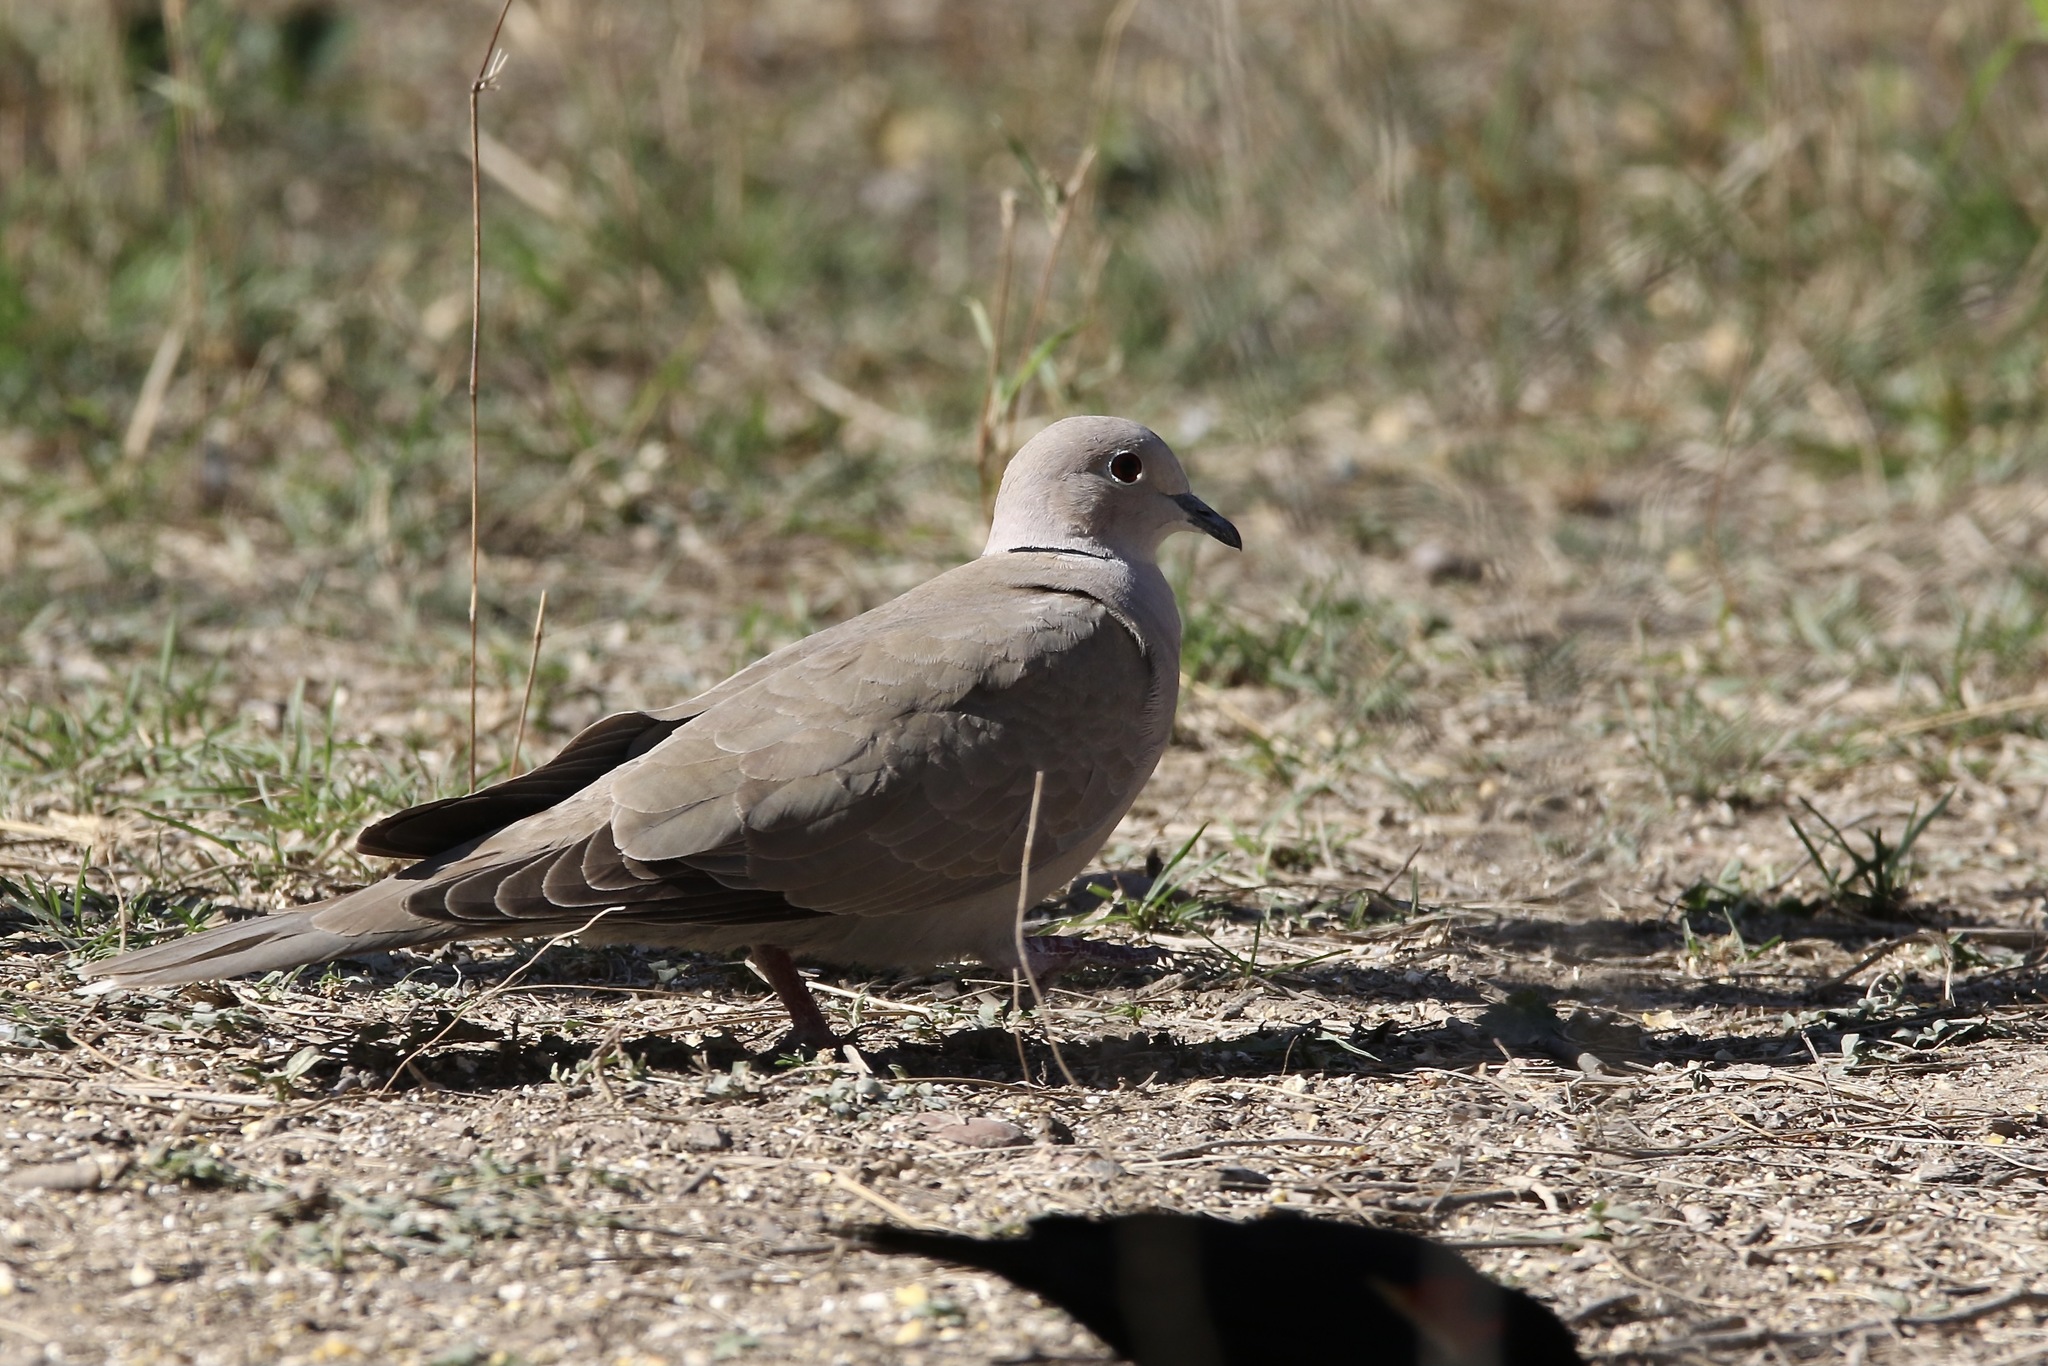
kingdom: Animalia
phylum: Chordata
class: Aves
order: Columbiformes
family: Columbidae
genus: Streptopelia
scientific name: Streptopelia decaocto
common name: Eurasian collared dove
